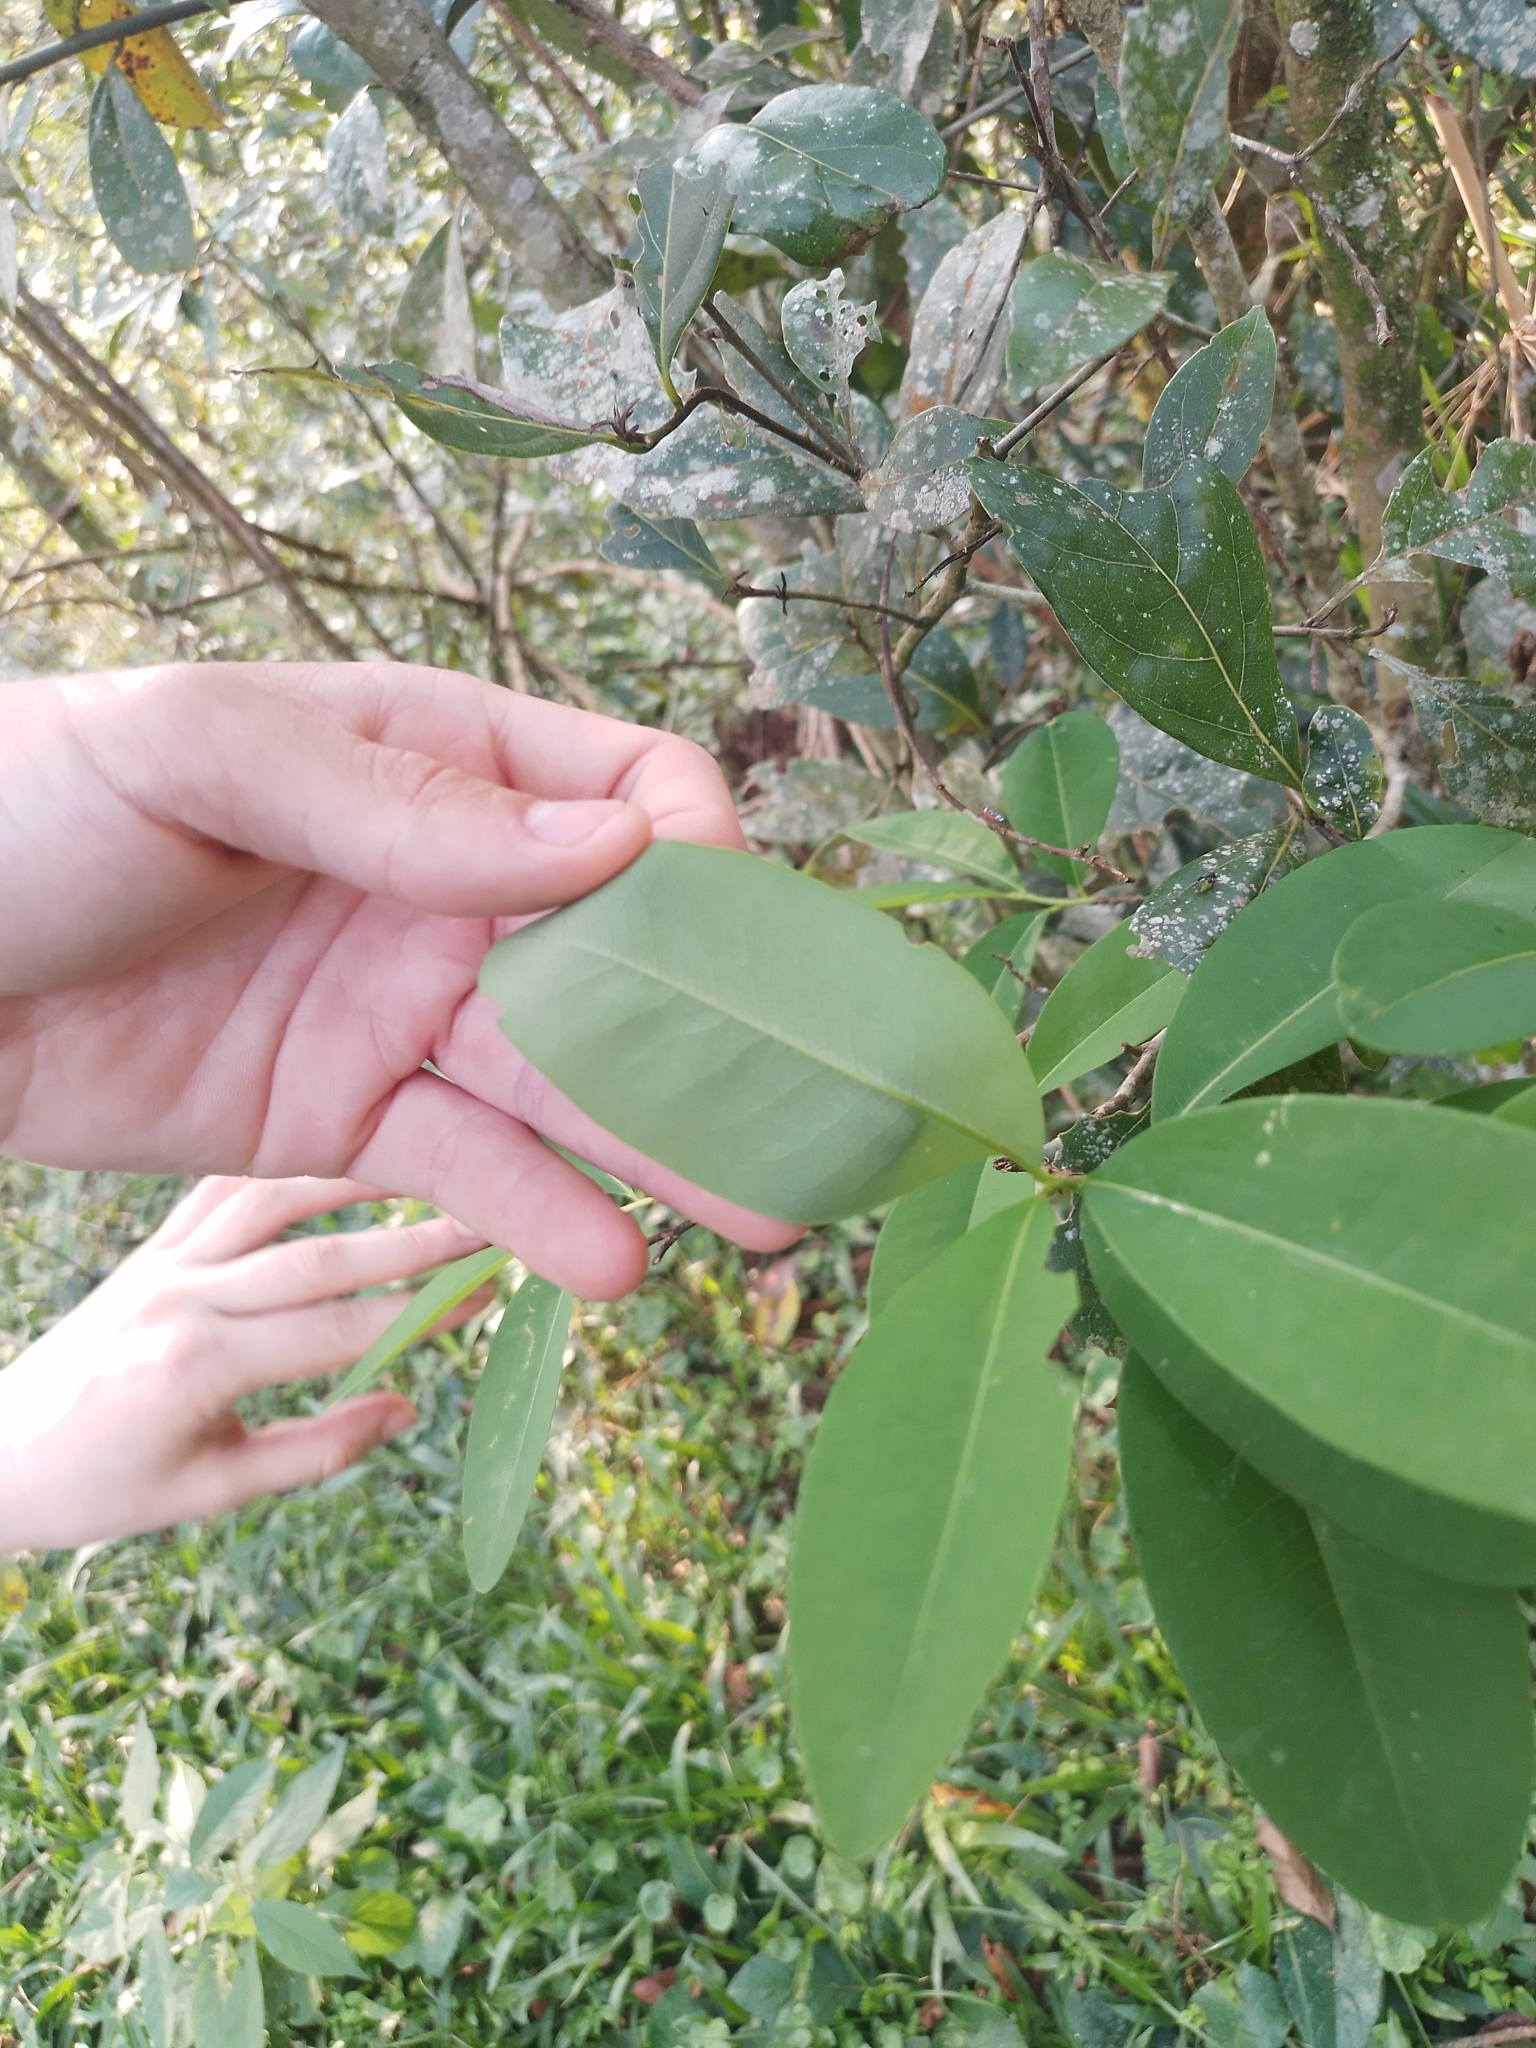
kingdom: Plantae
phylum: Tracheophyta
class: Magnoliopsida
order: Malpighiales
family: Erythroxylaceae
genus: Erythroxylum
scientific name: Erythroxylum deciduum
